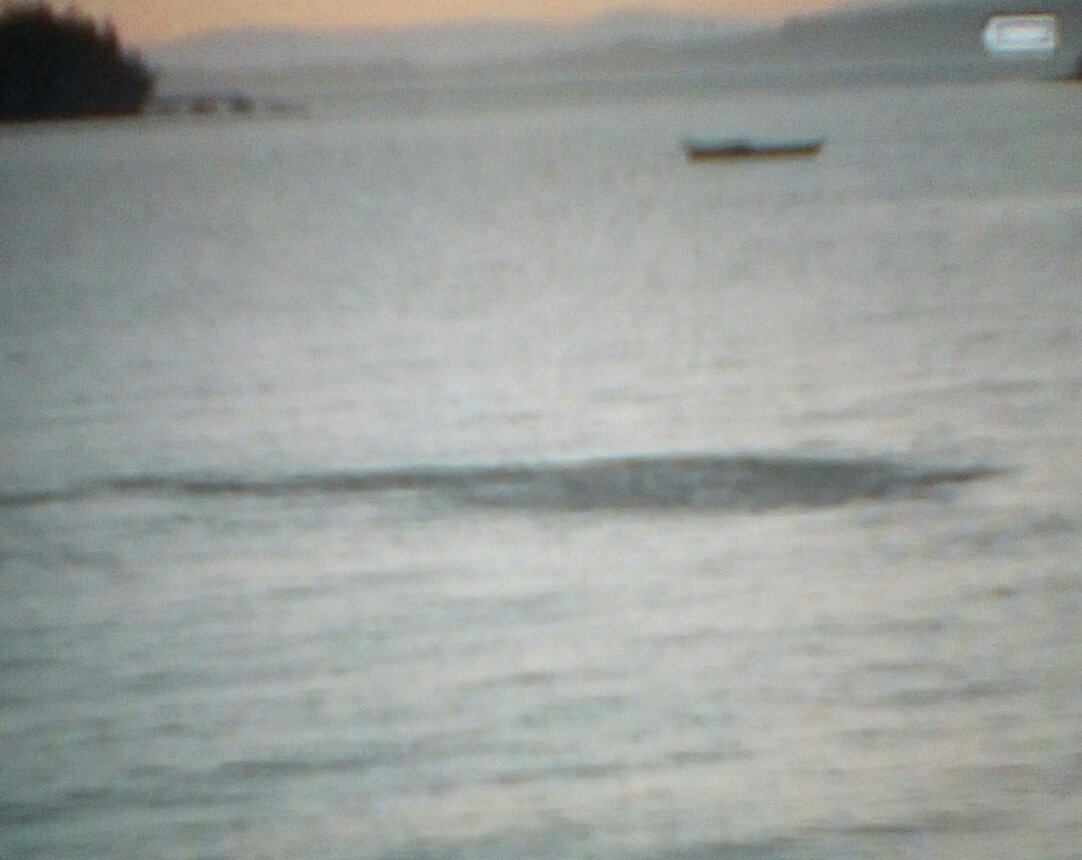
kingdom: Animalia
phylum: Chordata
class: Aves
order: Accipitriformes
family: Accipitridae
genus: Haliaeetus
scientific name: Haliaeetus leucocephalus
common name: Bald eagle
